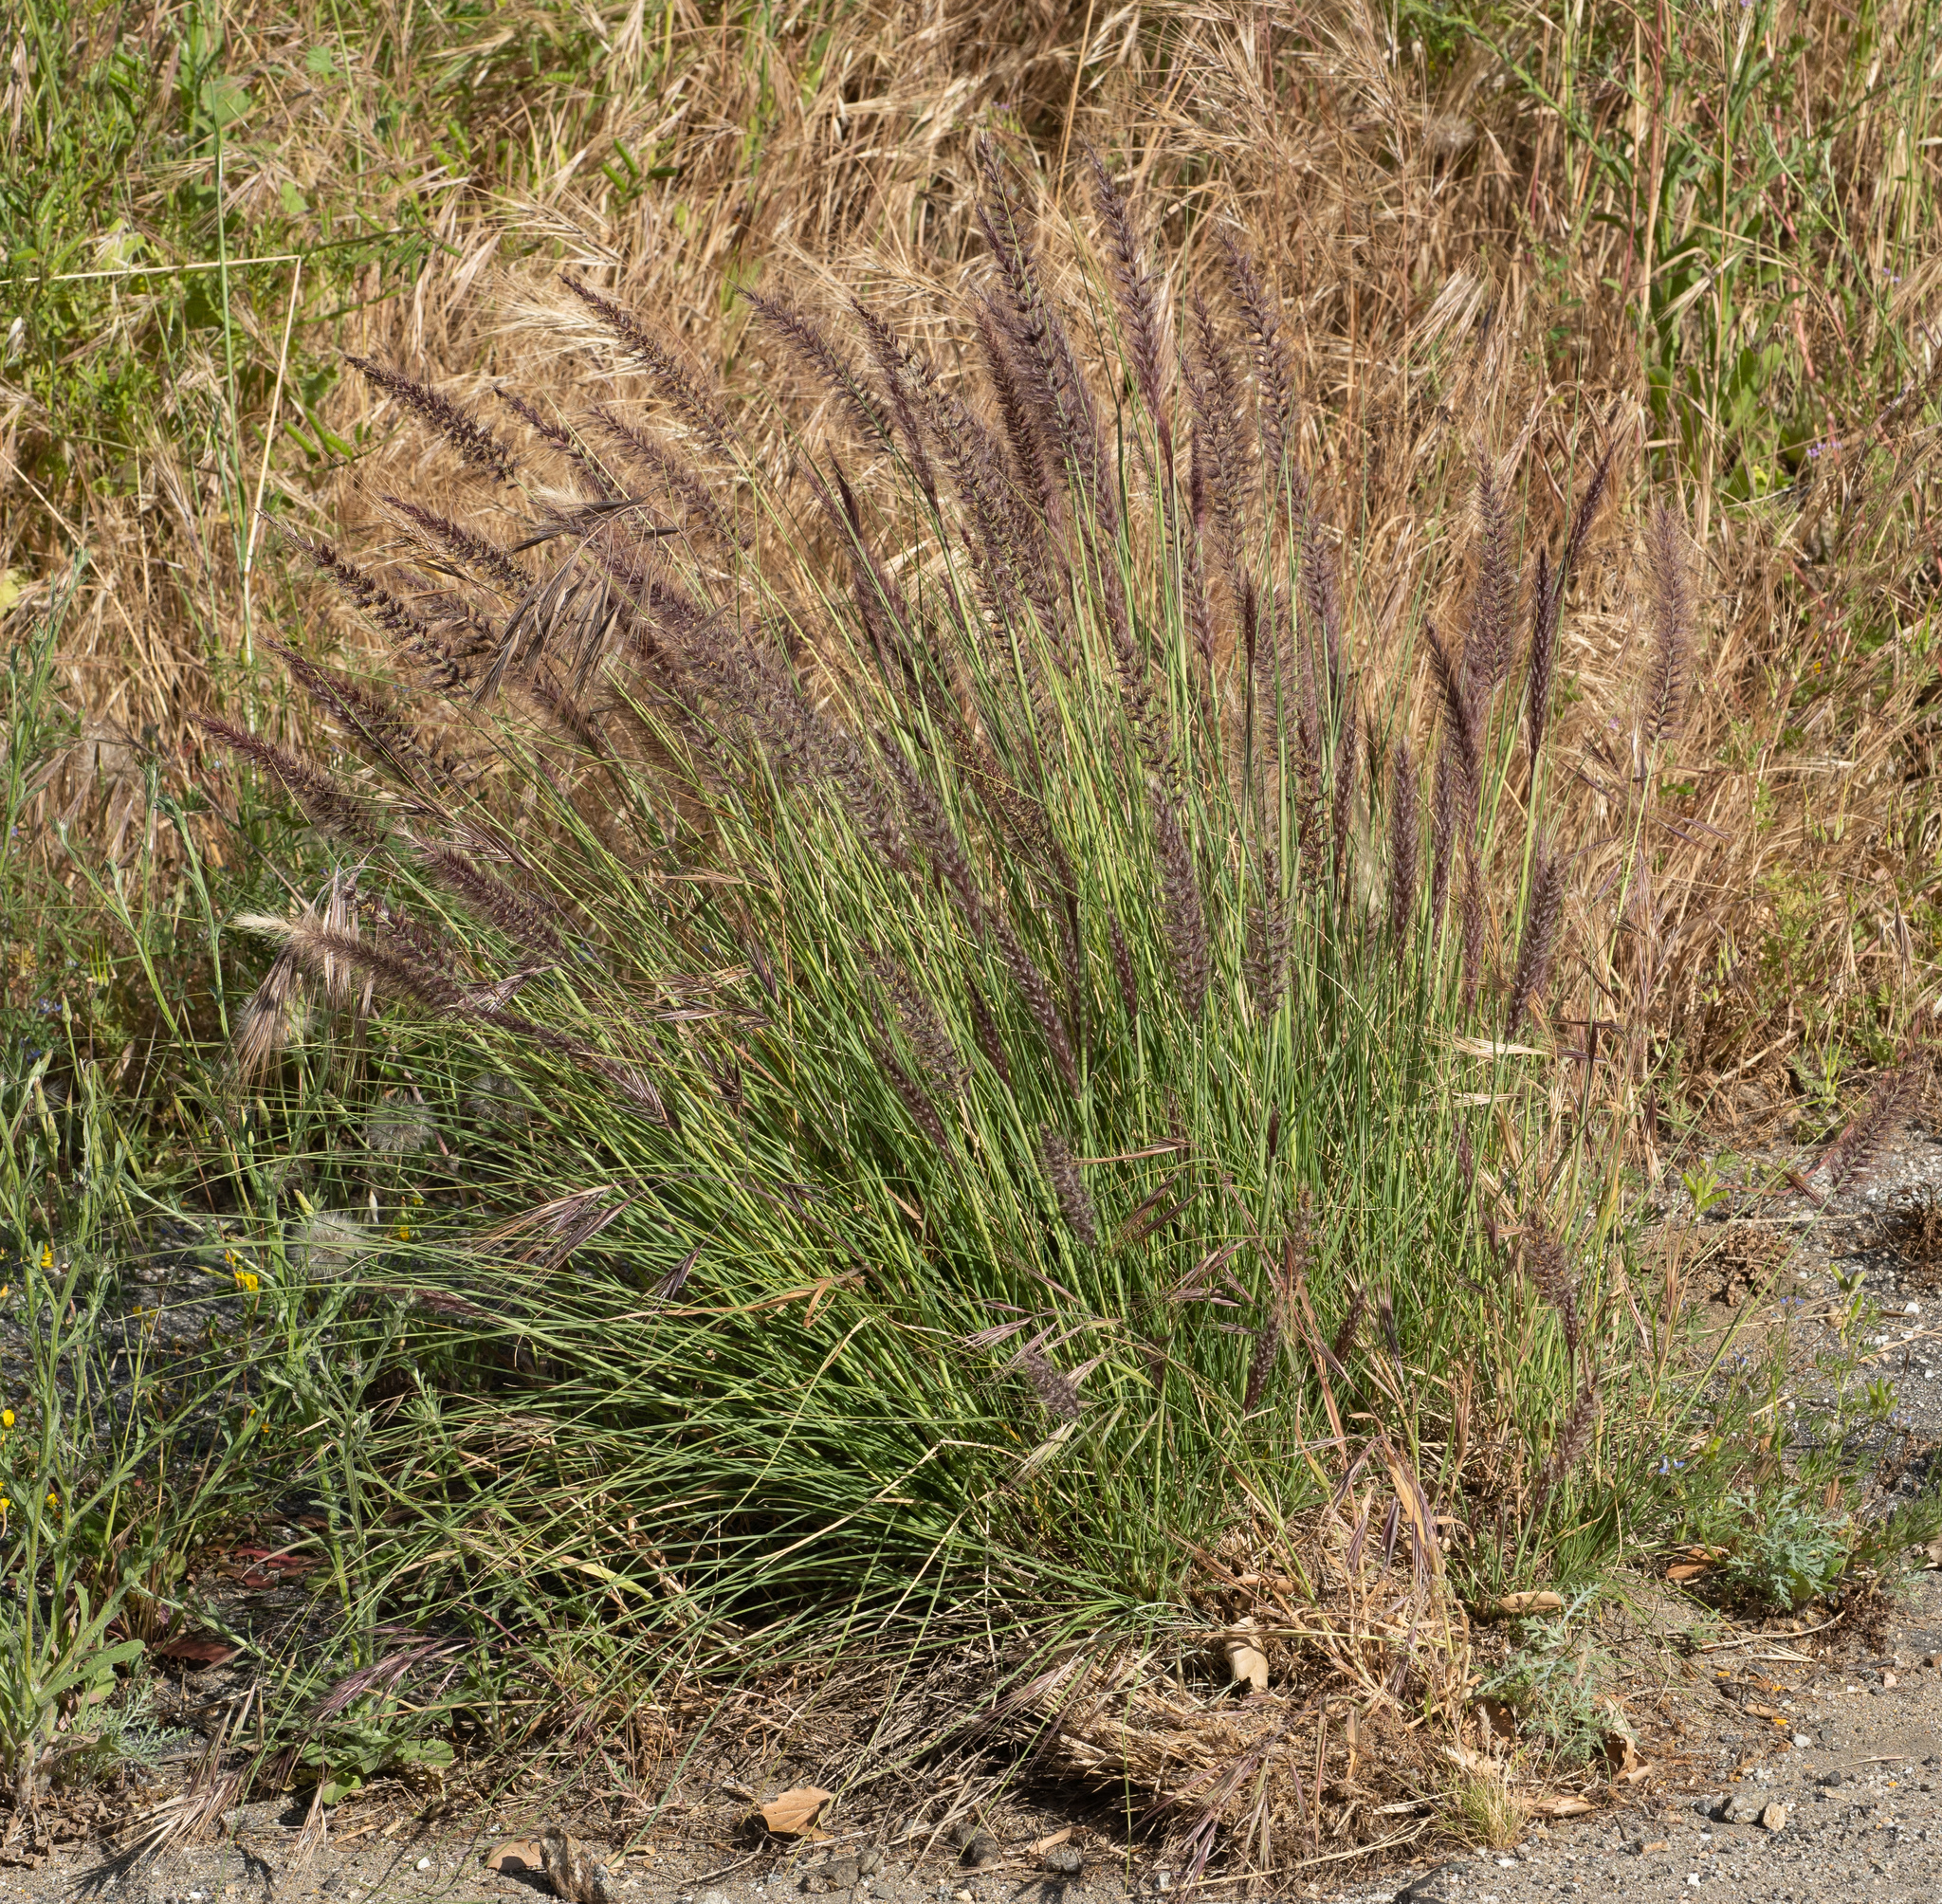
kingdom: Plantae
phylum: Tracheophyta
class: Liliopsida
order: Poales
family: Poaceae
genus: Cenchrus
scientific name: Cenchrus setaceus
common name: Crimson fountaingrass
